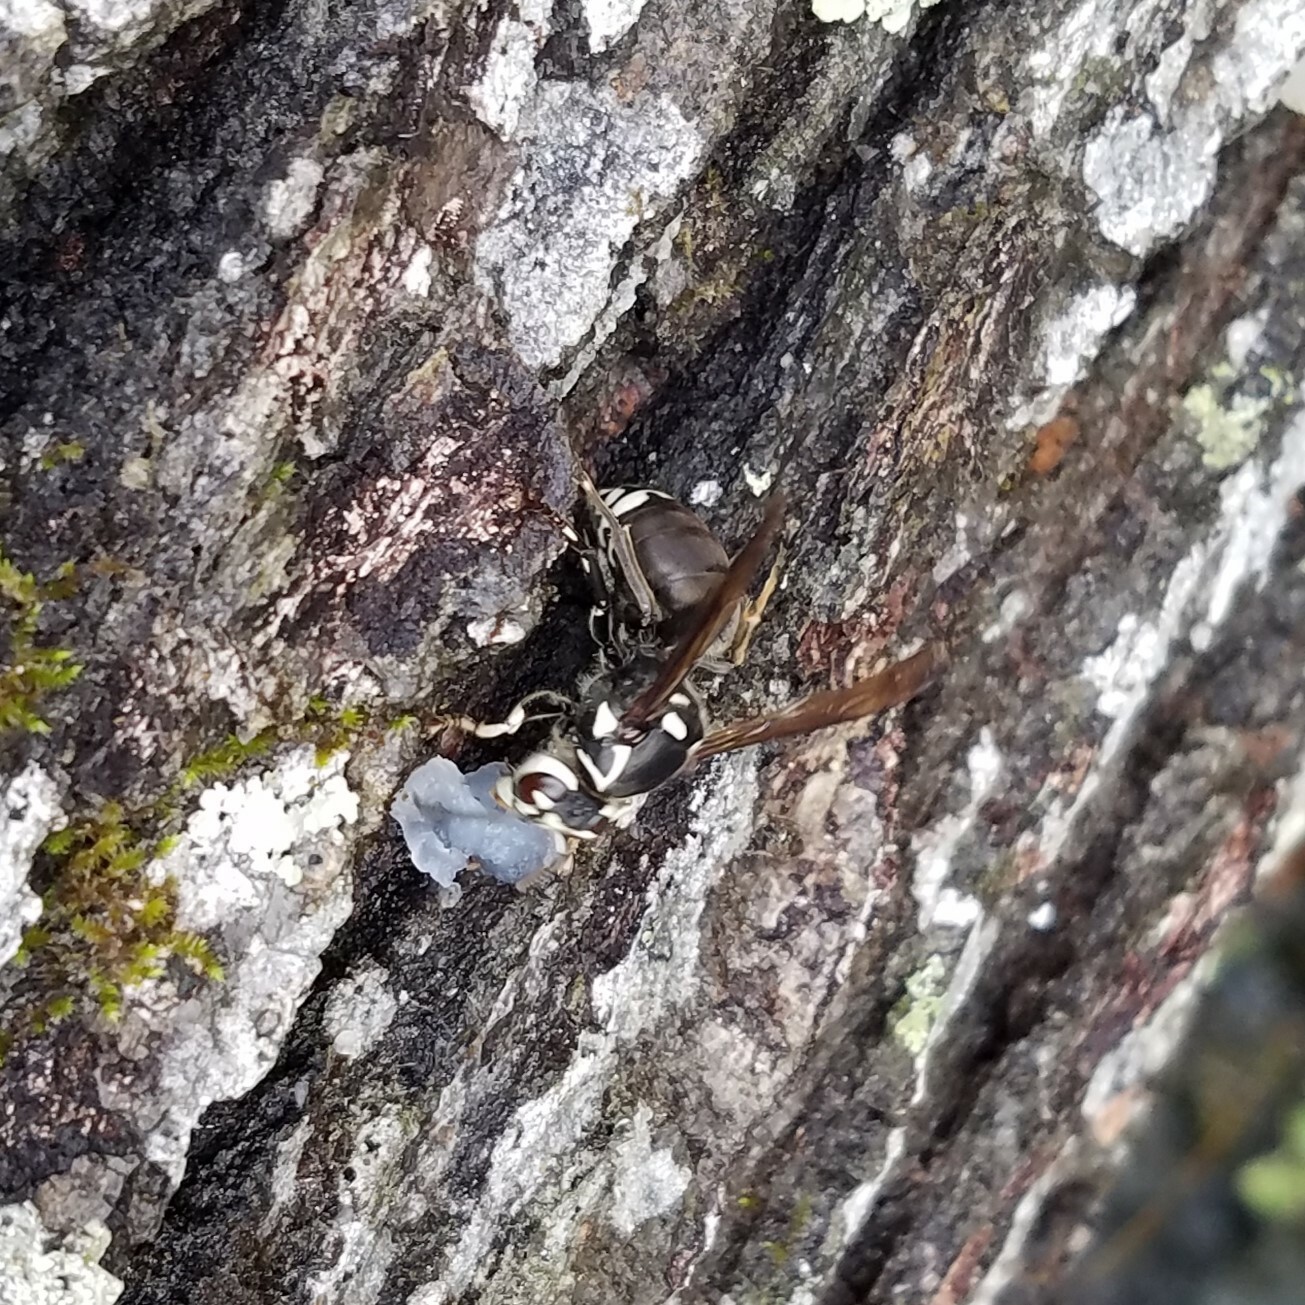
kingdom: Animalia
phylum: Arthropoda
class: Insecta
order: Hymenoptera
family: Vespidae
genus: Dolichovespula
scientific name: Dolichovespula maculata
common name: Bald-faced hornet
